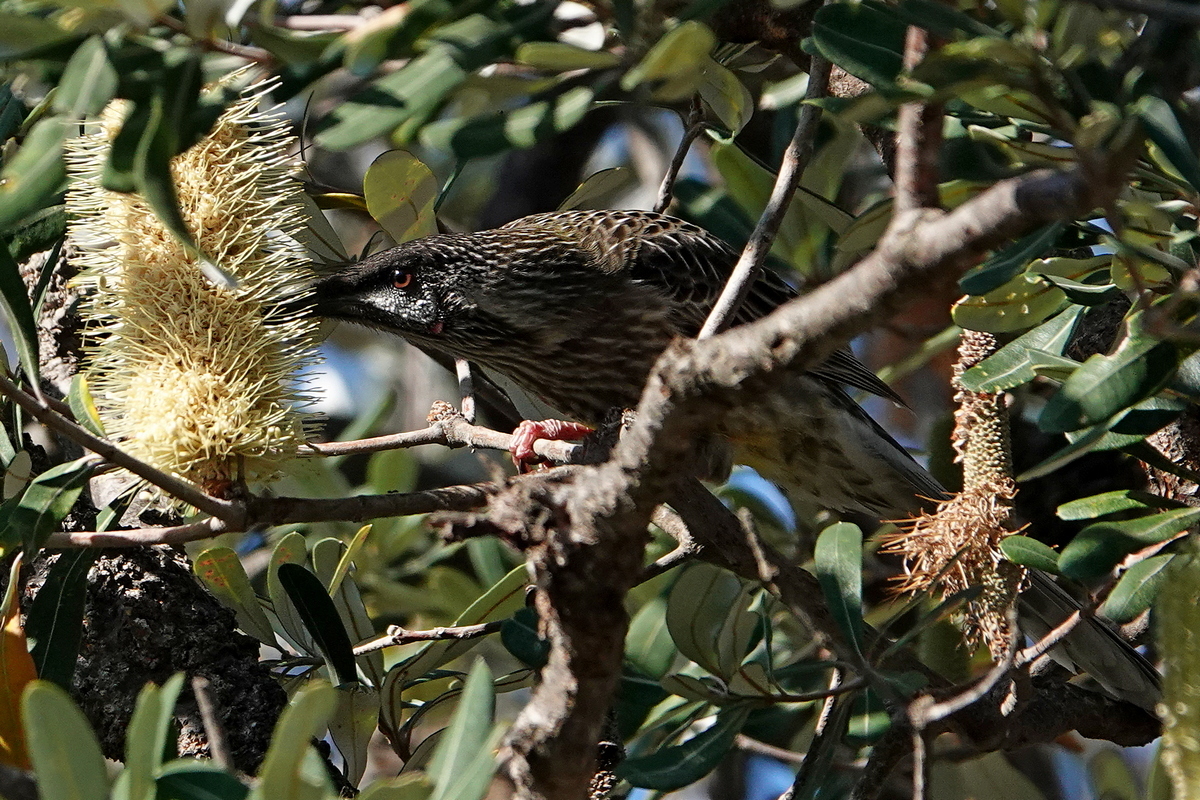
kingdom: Animalia
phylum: Chordata
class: Aves
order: Passeriformes
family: Meliphagidae
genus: Anthochaera
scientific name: Anthochaera carunculata
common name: Red wattlebird
